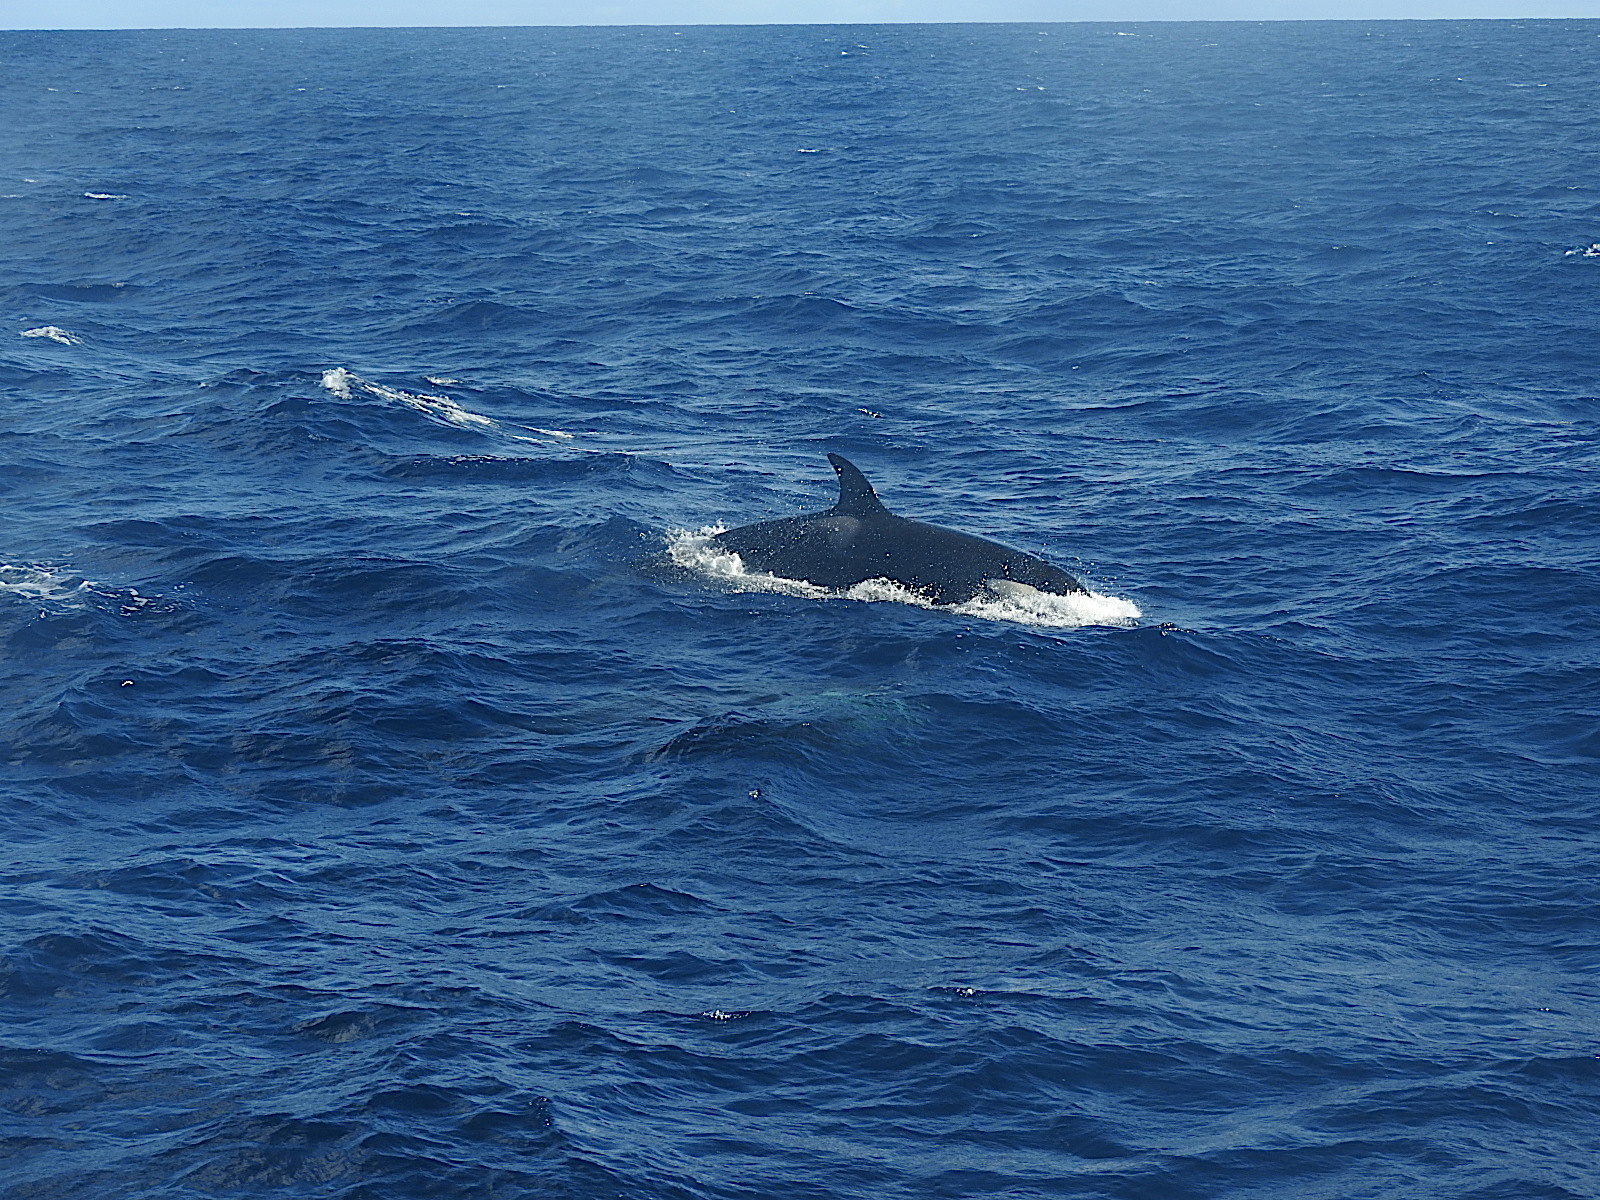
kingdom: Animalia
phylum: Chordata
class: Mammalia
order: Cetacea
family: Delphinidae
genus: Orcinus
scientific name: Orcinus orca
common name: Killer whale
